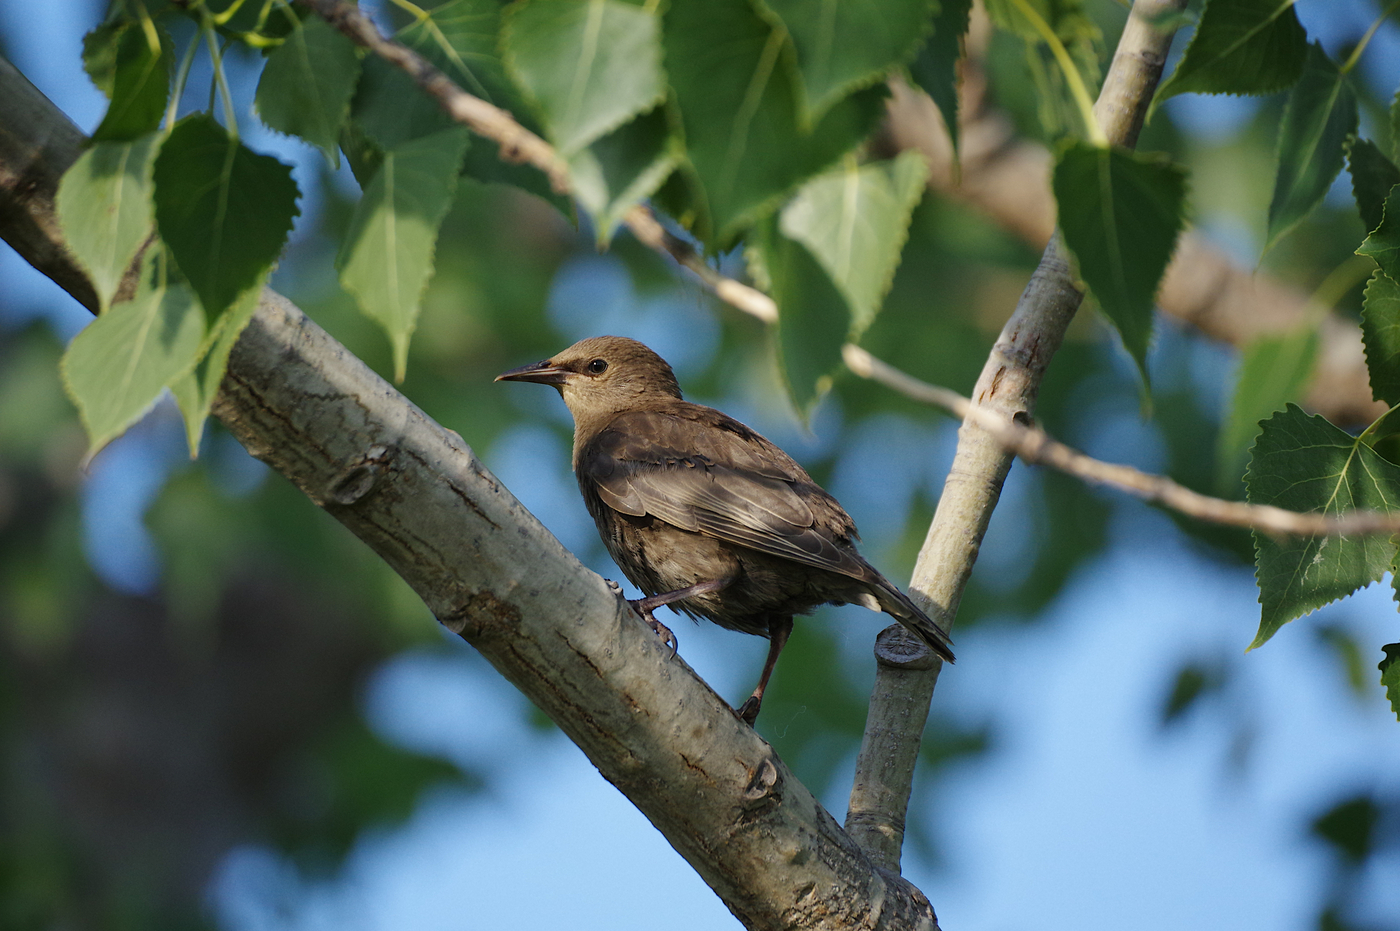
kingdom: Animalia
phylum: Chordata
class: Aves
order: Passeriformes
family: Sturnidae
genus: Sturnus
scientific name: Sturnus vulgaris
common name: Common starling
